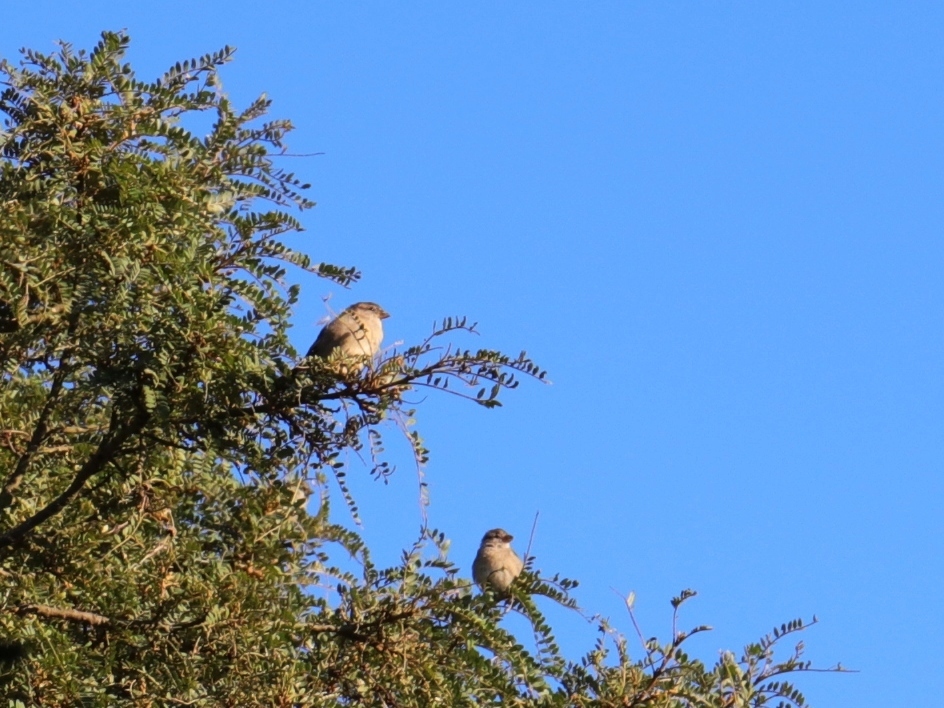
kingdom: Animalia
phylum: Chordata
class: Aves
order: Passeriformes
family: Passeridae
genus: Passer
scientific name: Passer domesticus
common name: House sparrow
